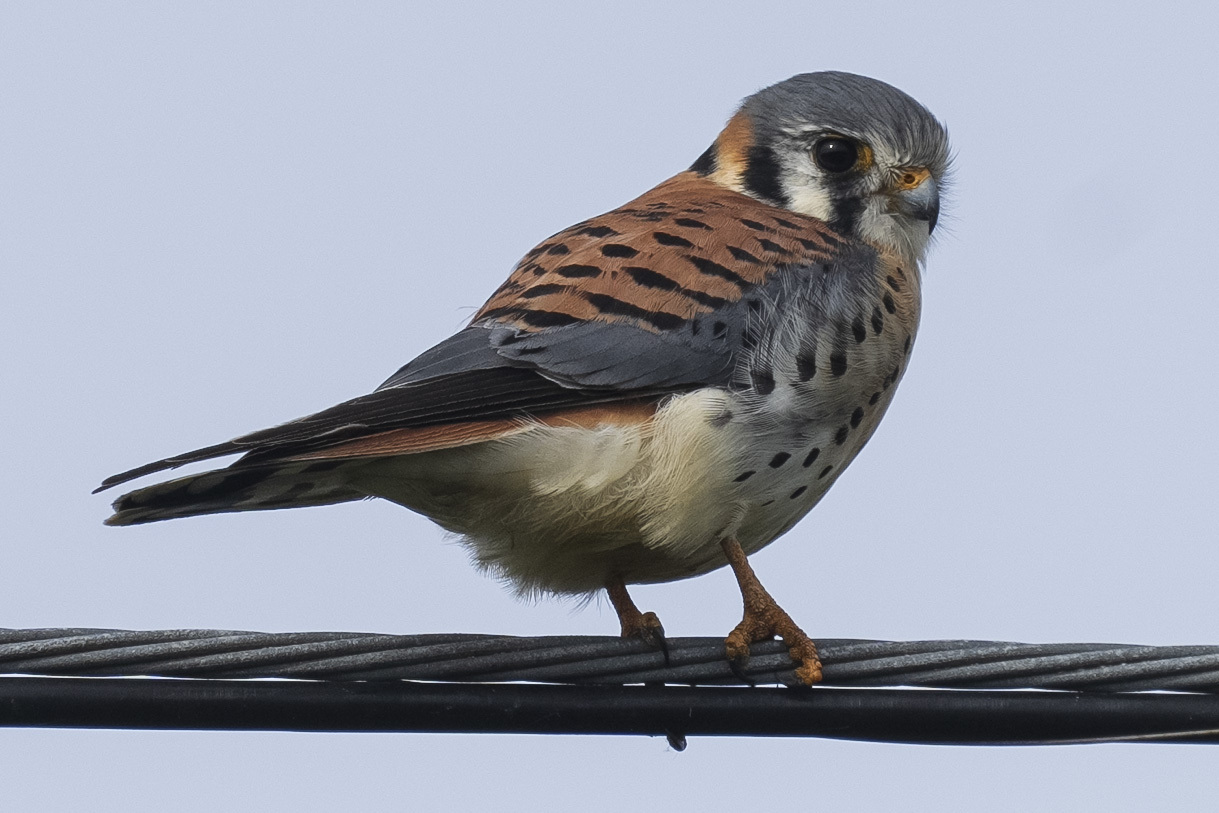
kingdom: Animalia
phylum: Chordata
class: Aves
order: Falconiformes
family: Falconidae
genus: Falco
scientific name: Falco sparverius
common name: American kestrel
